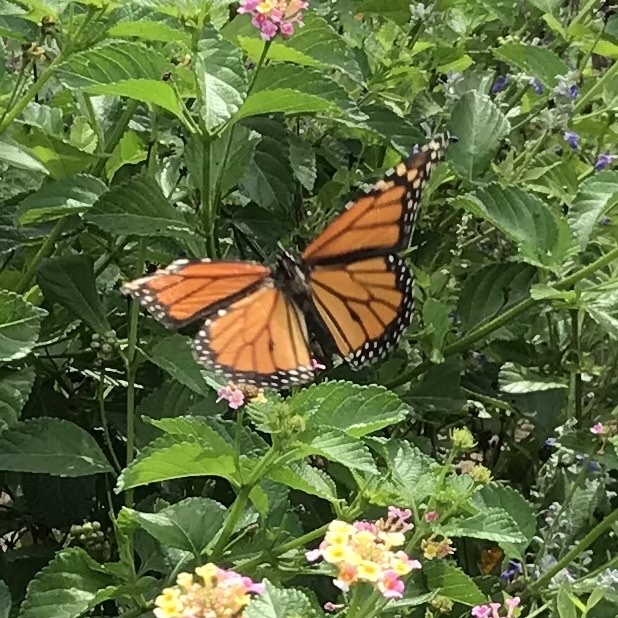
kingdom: Animalia
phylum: Arthropoda
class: Insecta
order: Lepidoptera
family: Nymphalidae
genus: Danaus
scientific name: Danaus plexippus
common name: Monarch
